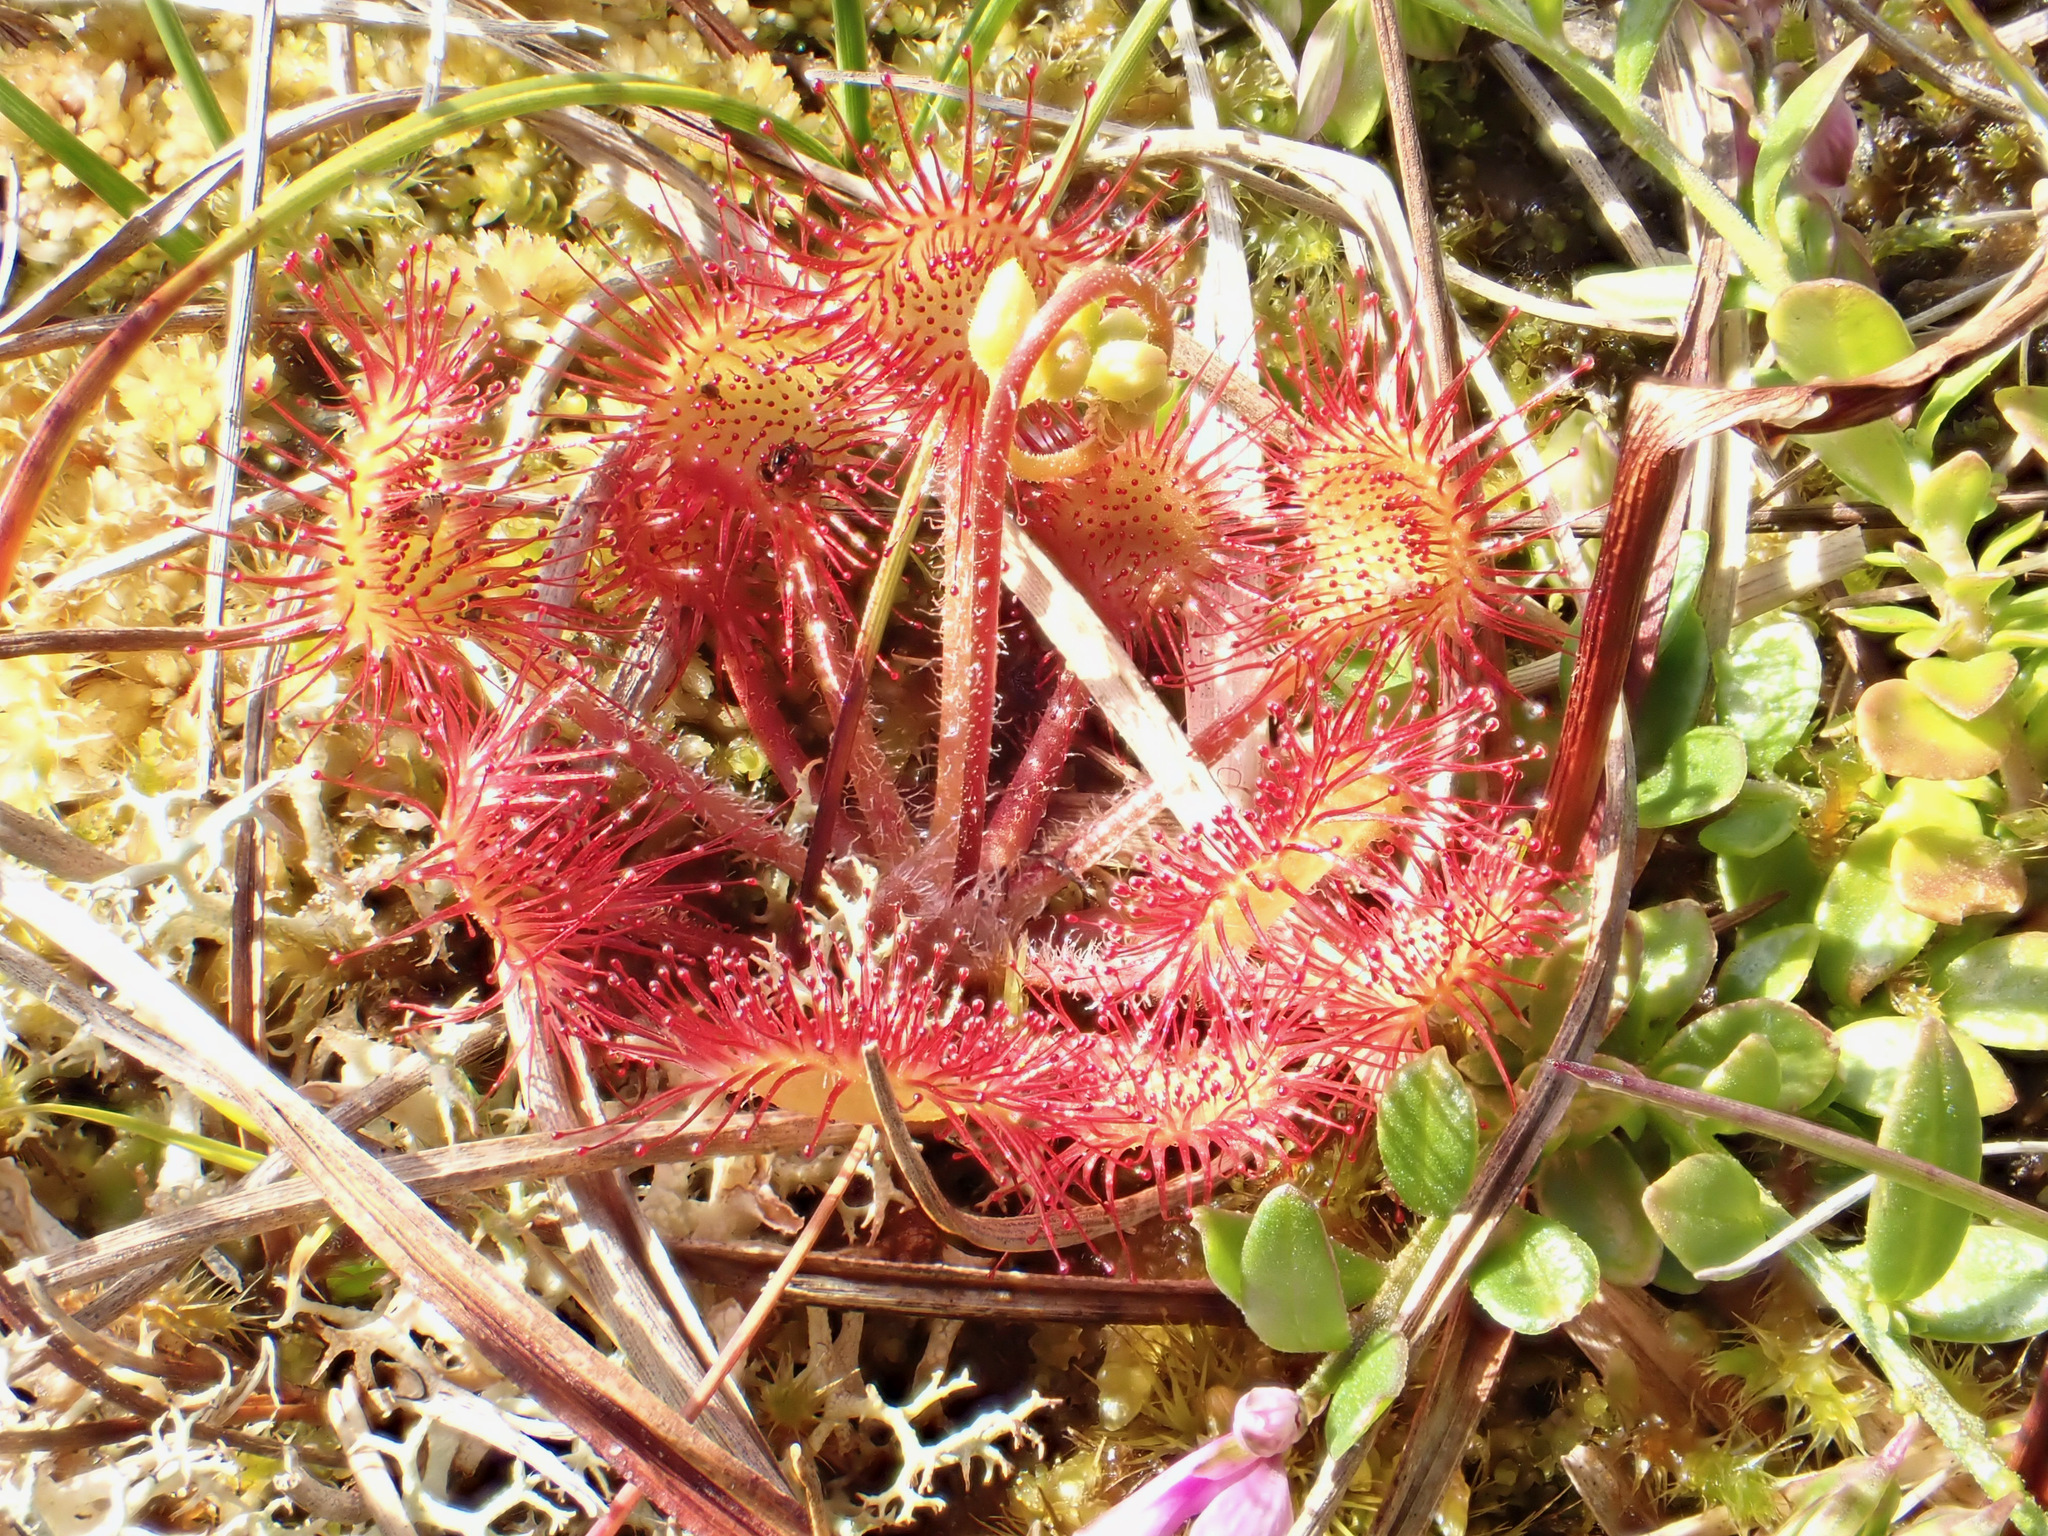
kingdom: Plantae
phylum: Tracheophyta
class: Magnoliopsida
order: Caryophyllales
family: Droseraceae
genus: Drosera
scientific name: Drosera rotundifolia
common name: Round-leaved sundew
